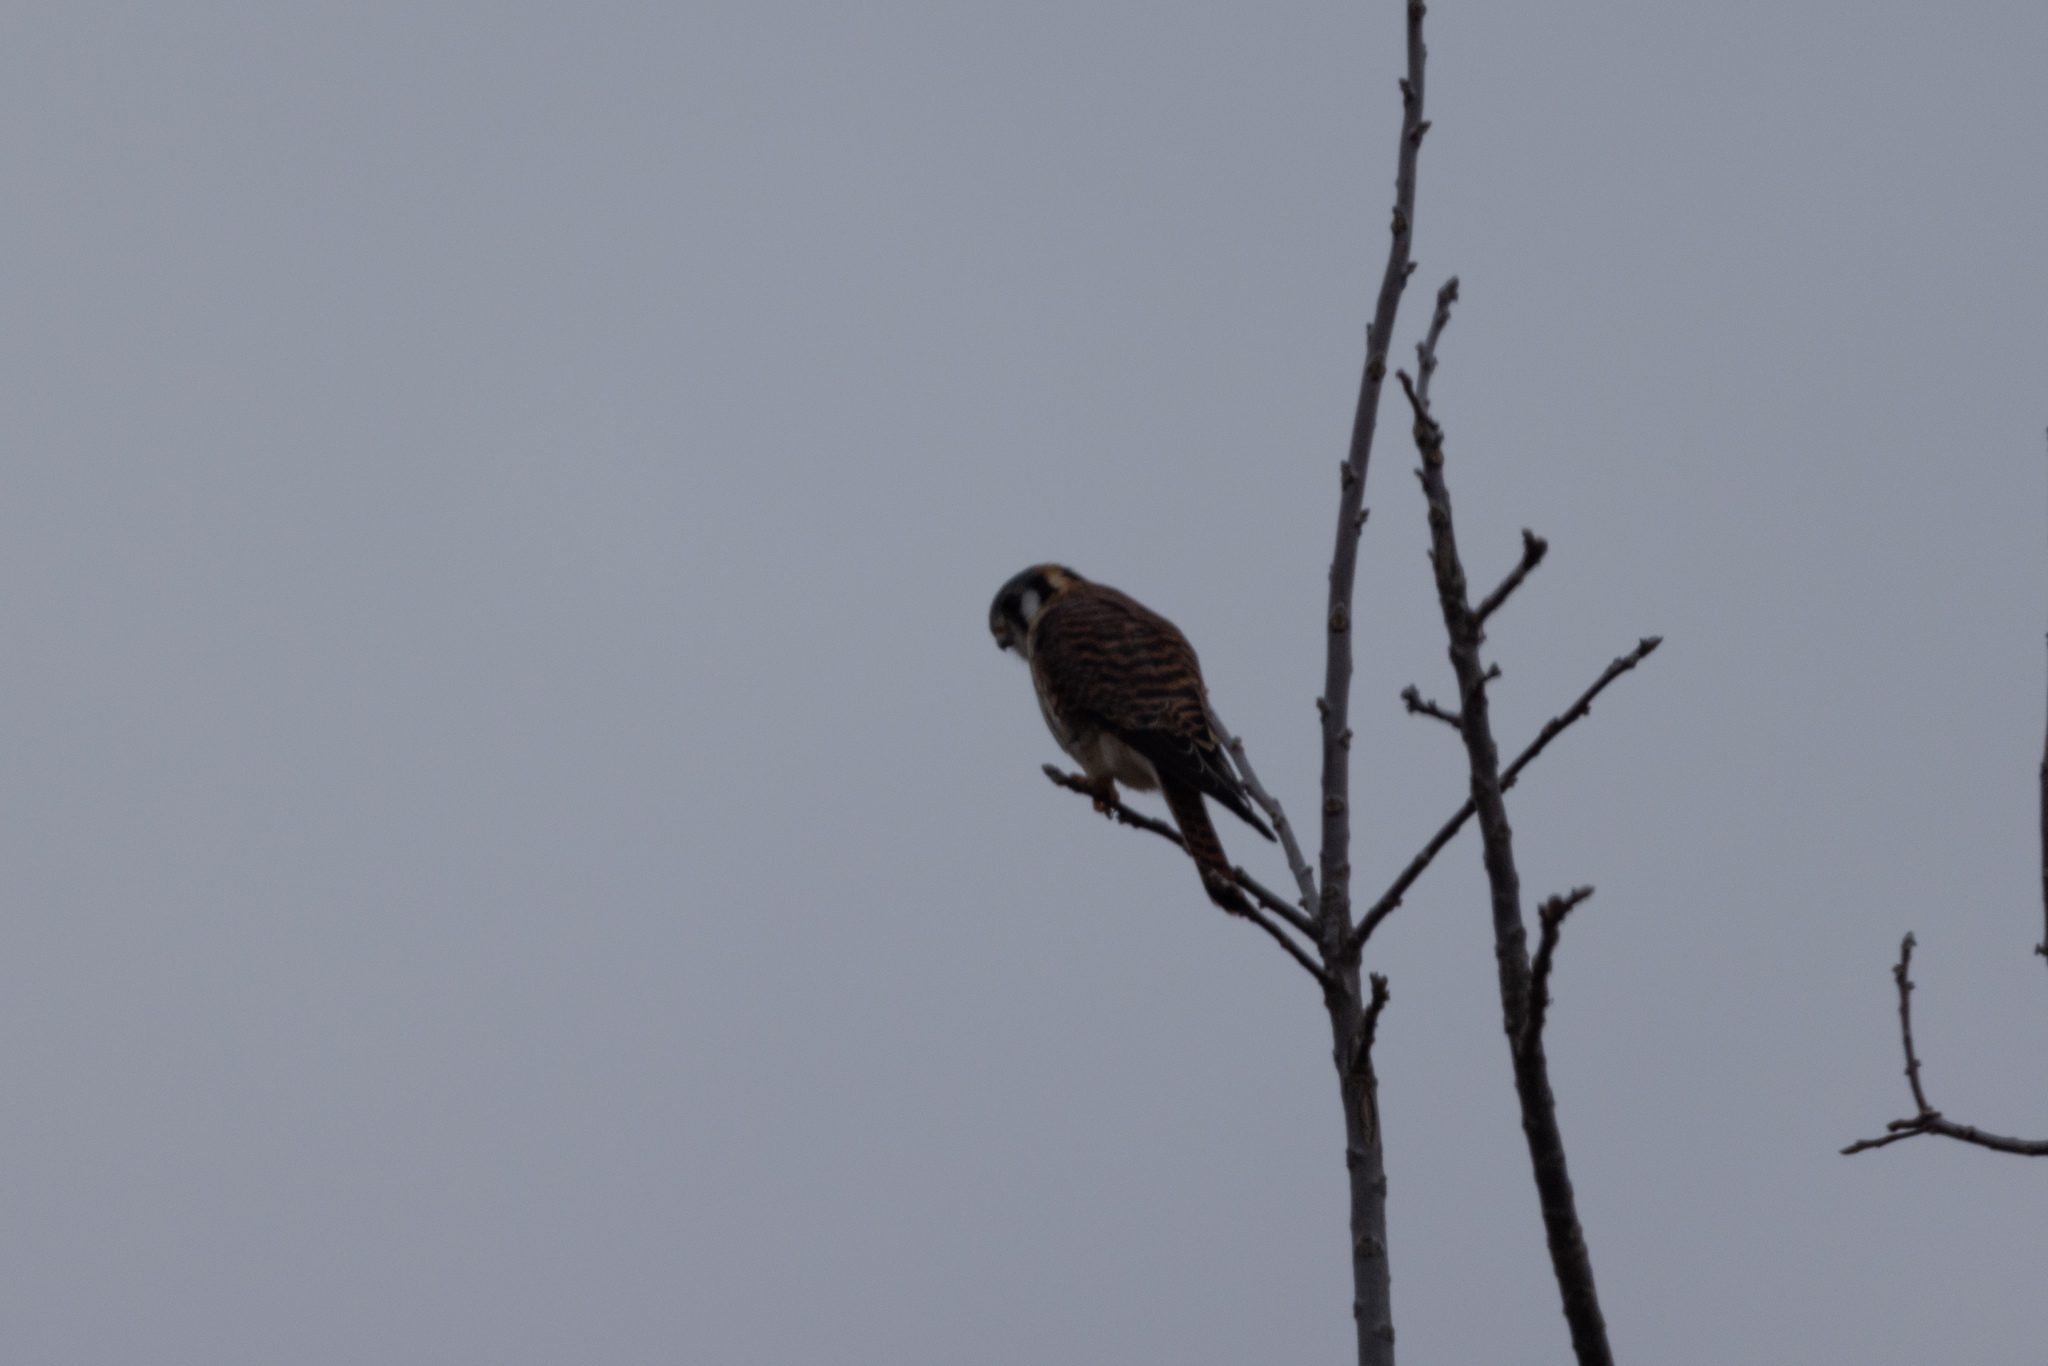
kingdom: Animalia
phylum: Chordata
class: Aves
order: Falconiformes
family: Falconidae
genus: Falco
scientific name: Falco sparverius
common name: American kestrel
